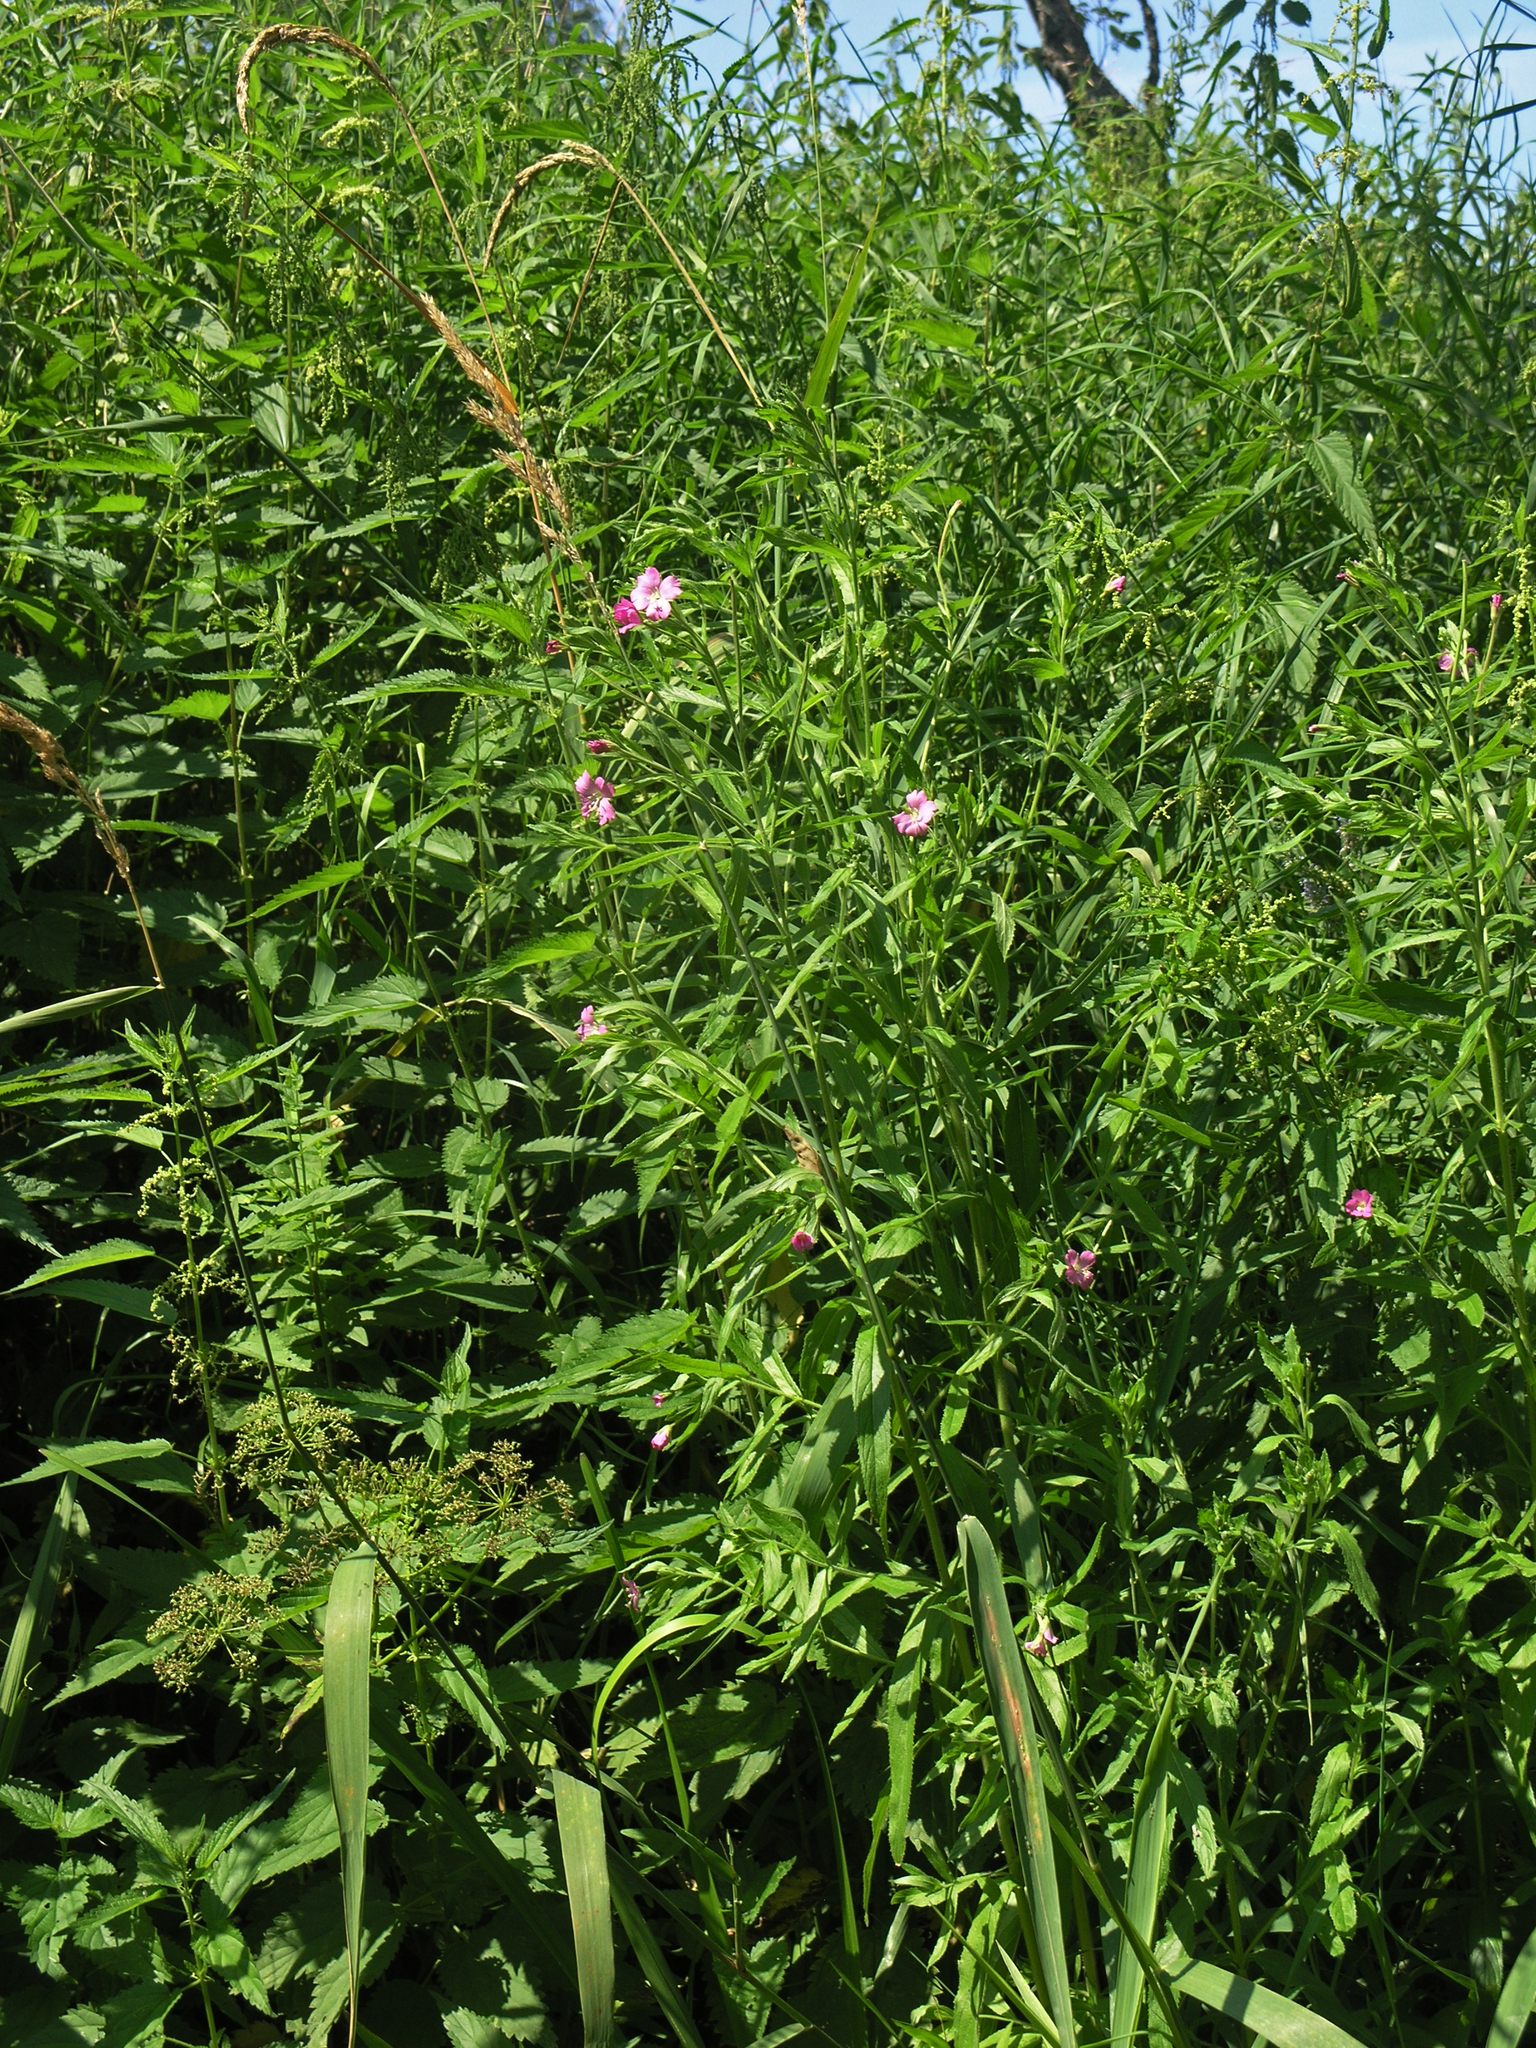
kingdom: Plantae
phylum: Tracheophyta
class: Magnoliopsida
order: Myrtales
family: Onagraceae
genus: Epilobium
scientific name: Epilobium hirsutum
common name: Great willowherb
